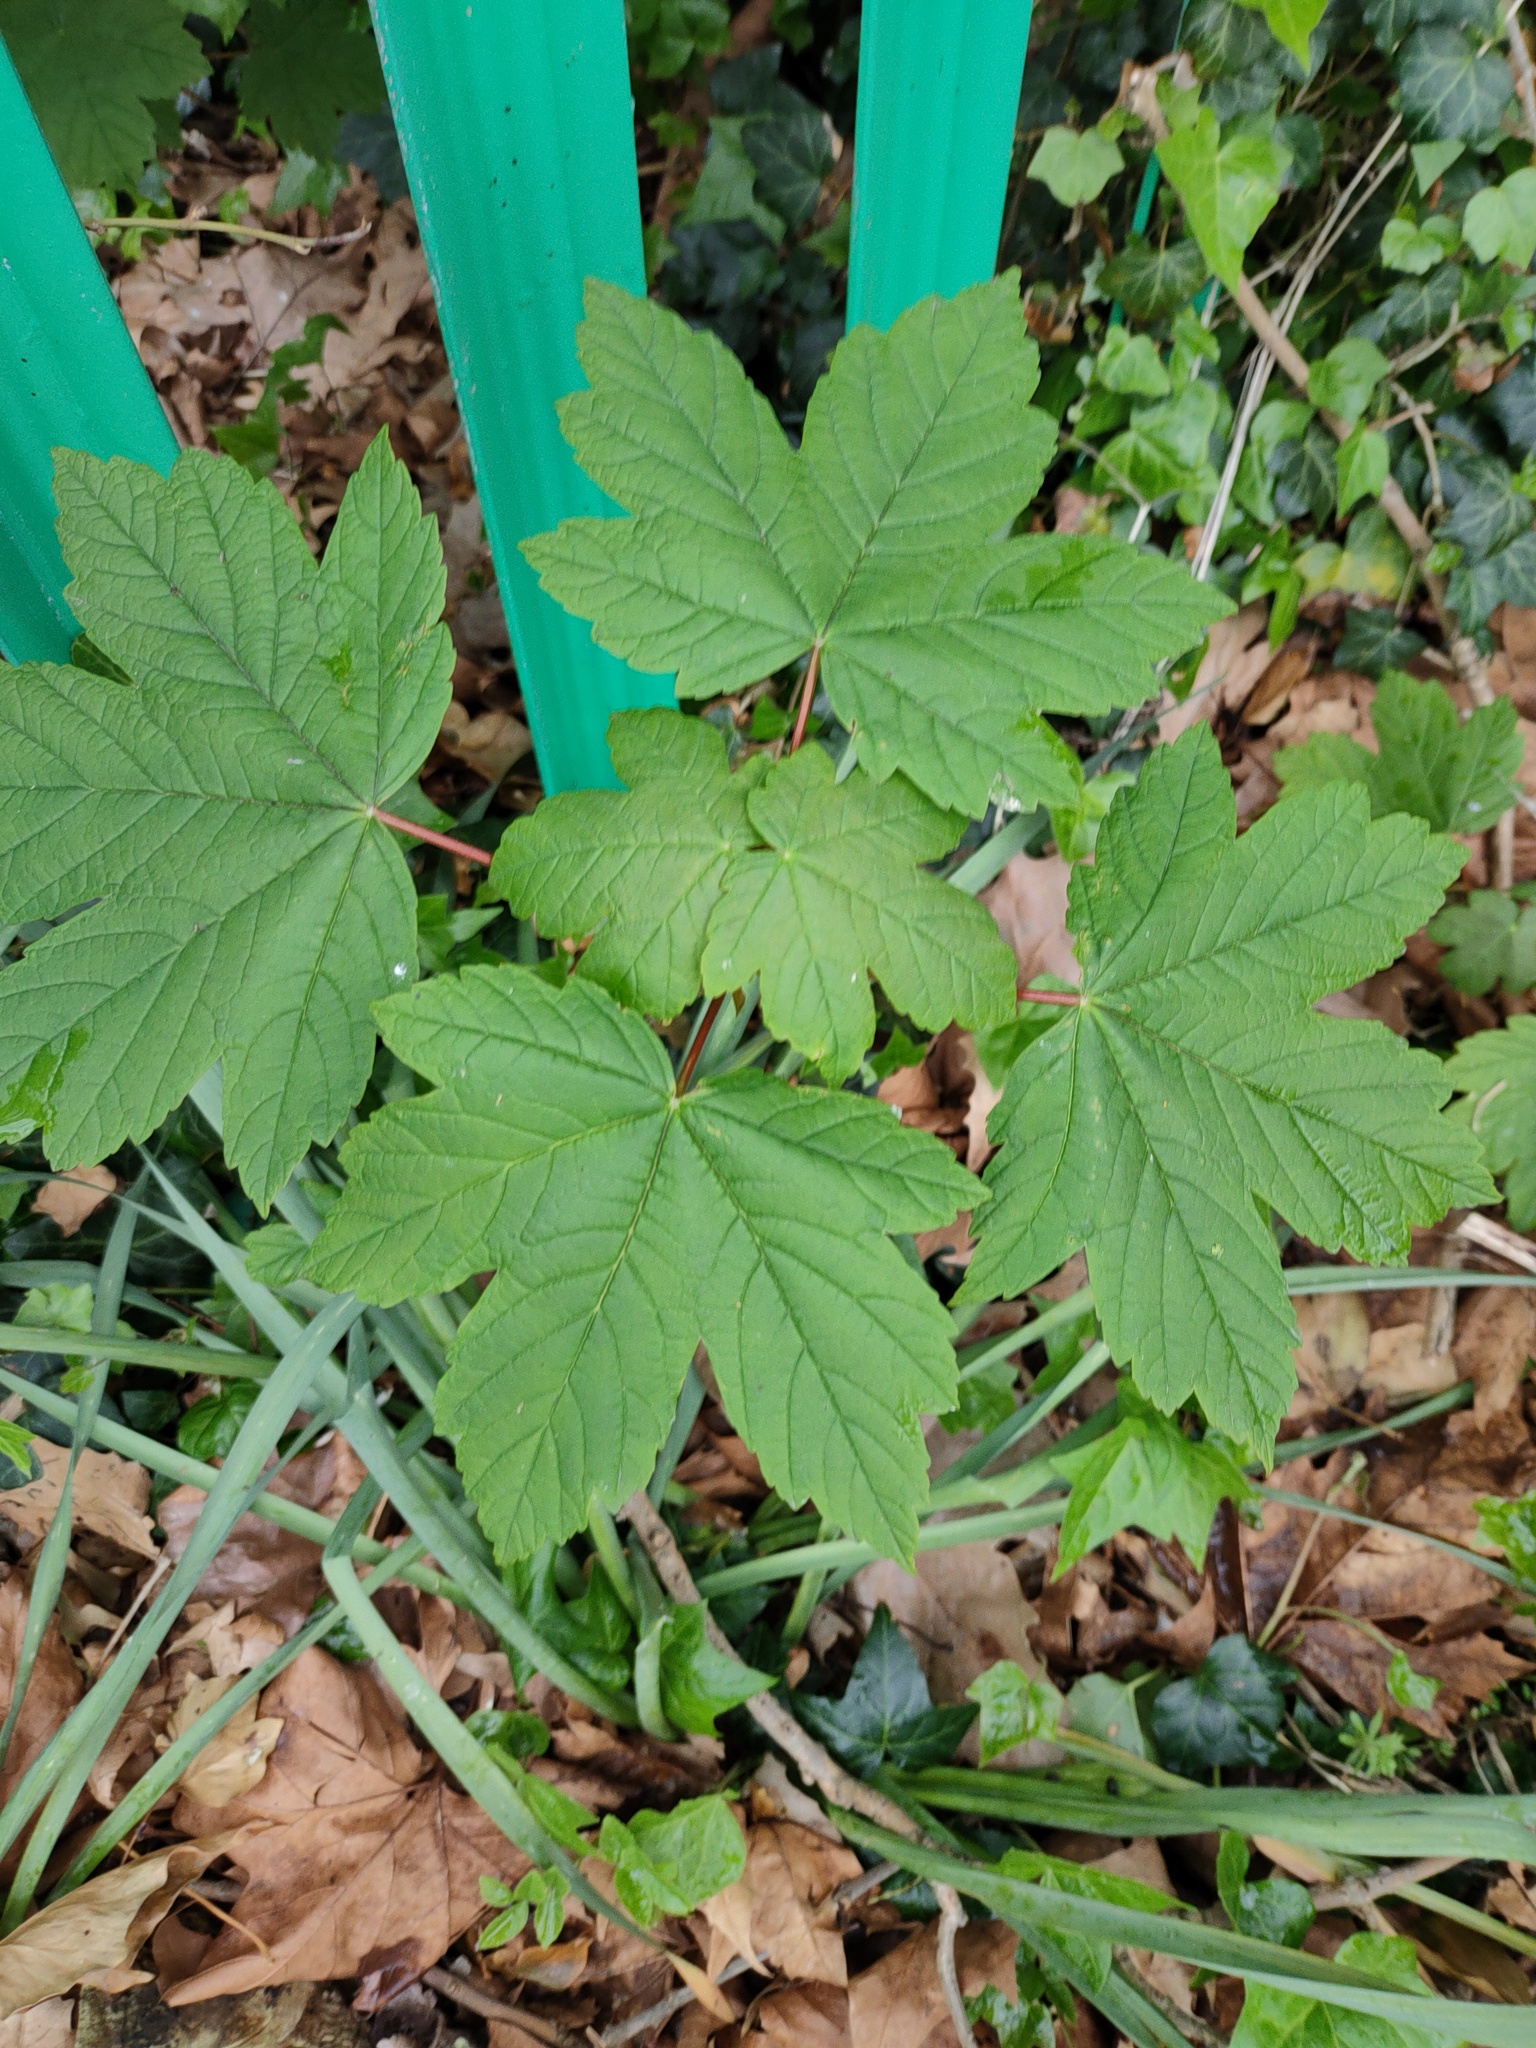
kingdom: Plantae
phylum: Tracheophyta
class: Magnoliopsida
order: Sapindales
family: Sapindaceae
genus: Acer
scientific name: Acer pseudoplatanus
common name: Sycamore
